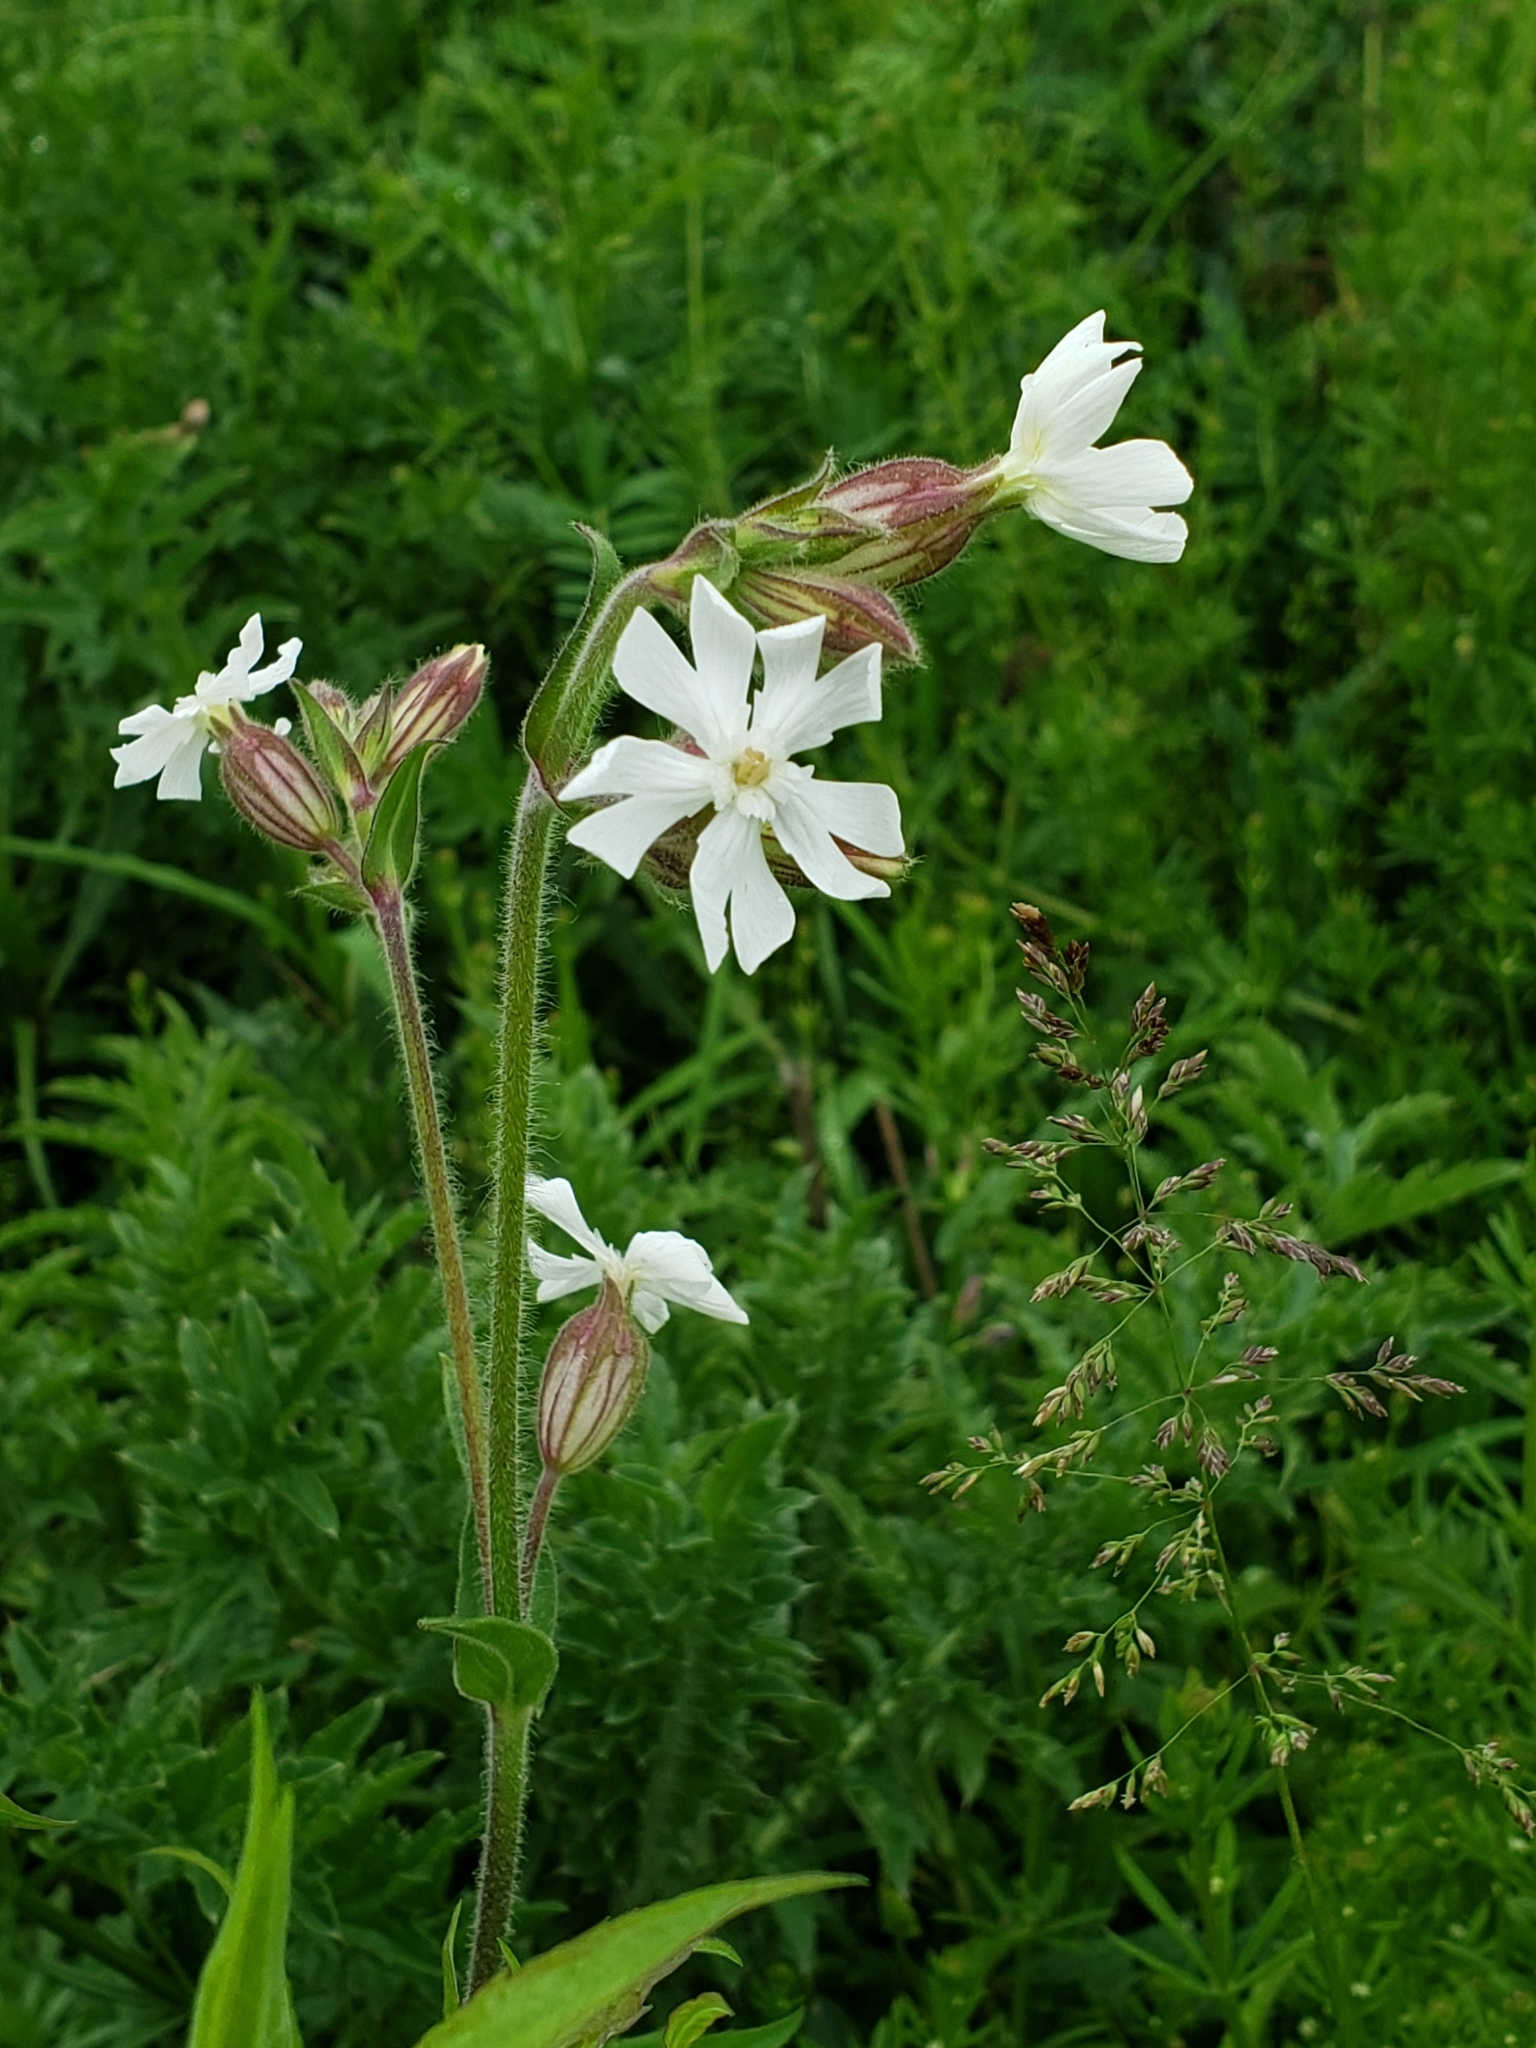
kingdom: Plantae
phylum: Tracheophyta
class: Magnoliopsida
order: Caryophyllales
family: Caryophyllaceae
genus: Silene
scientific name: Silene latifolia
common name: White campion
